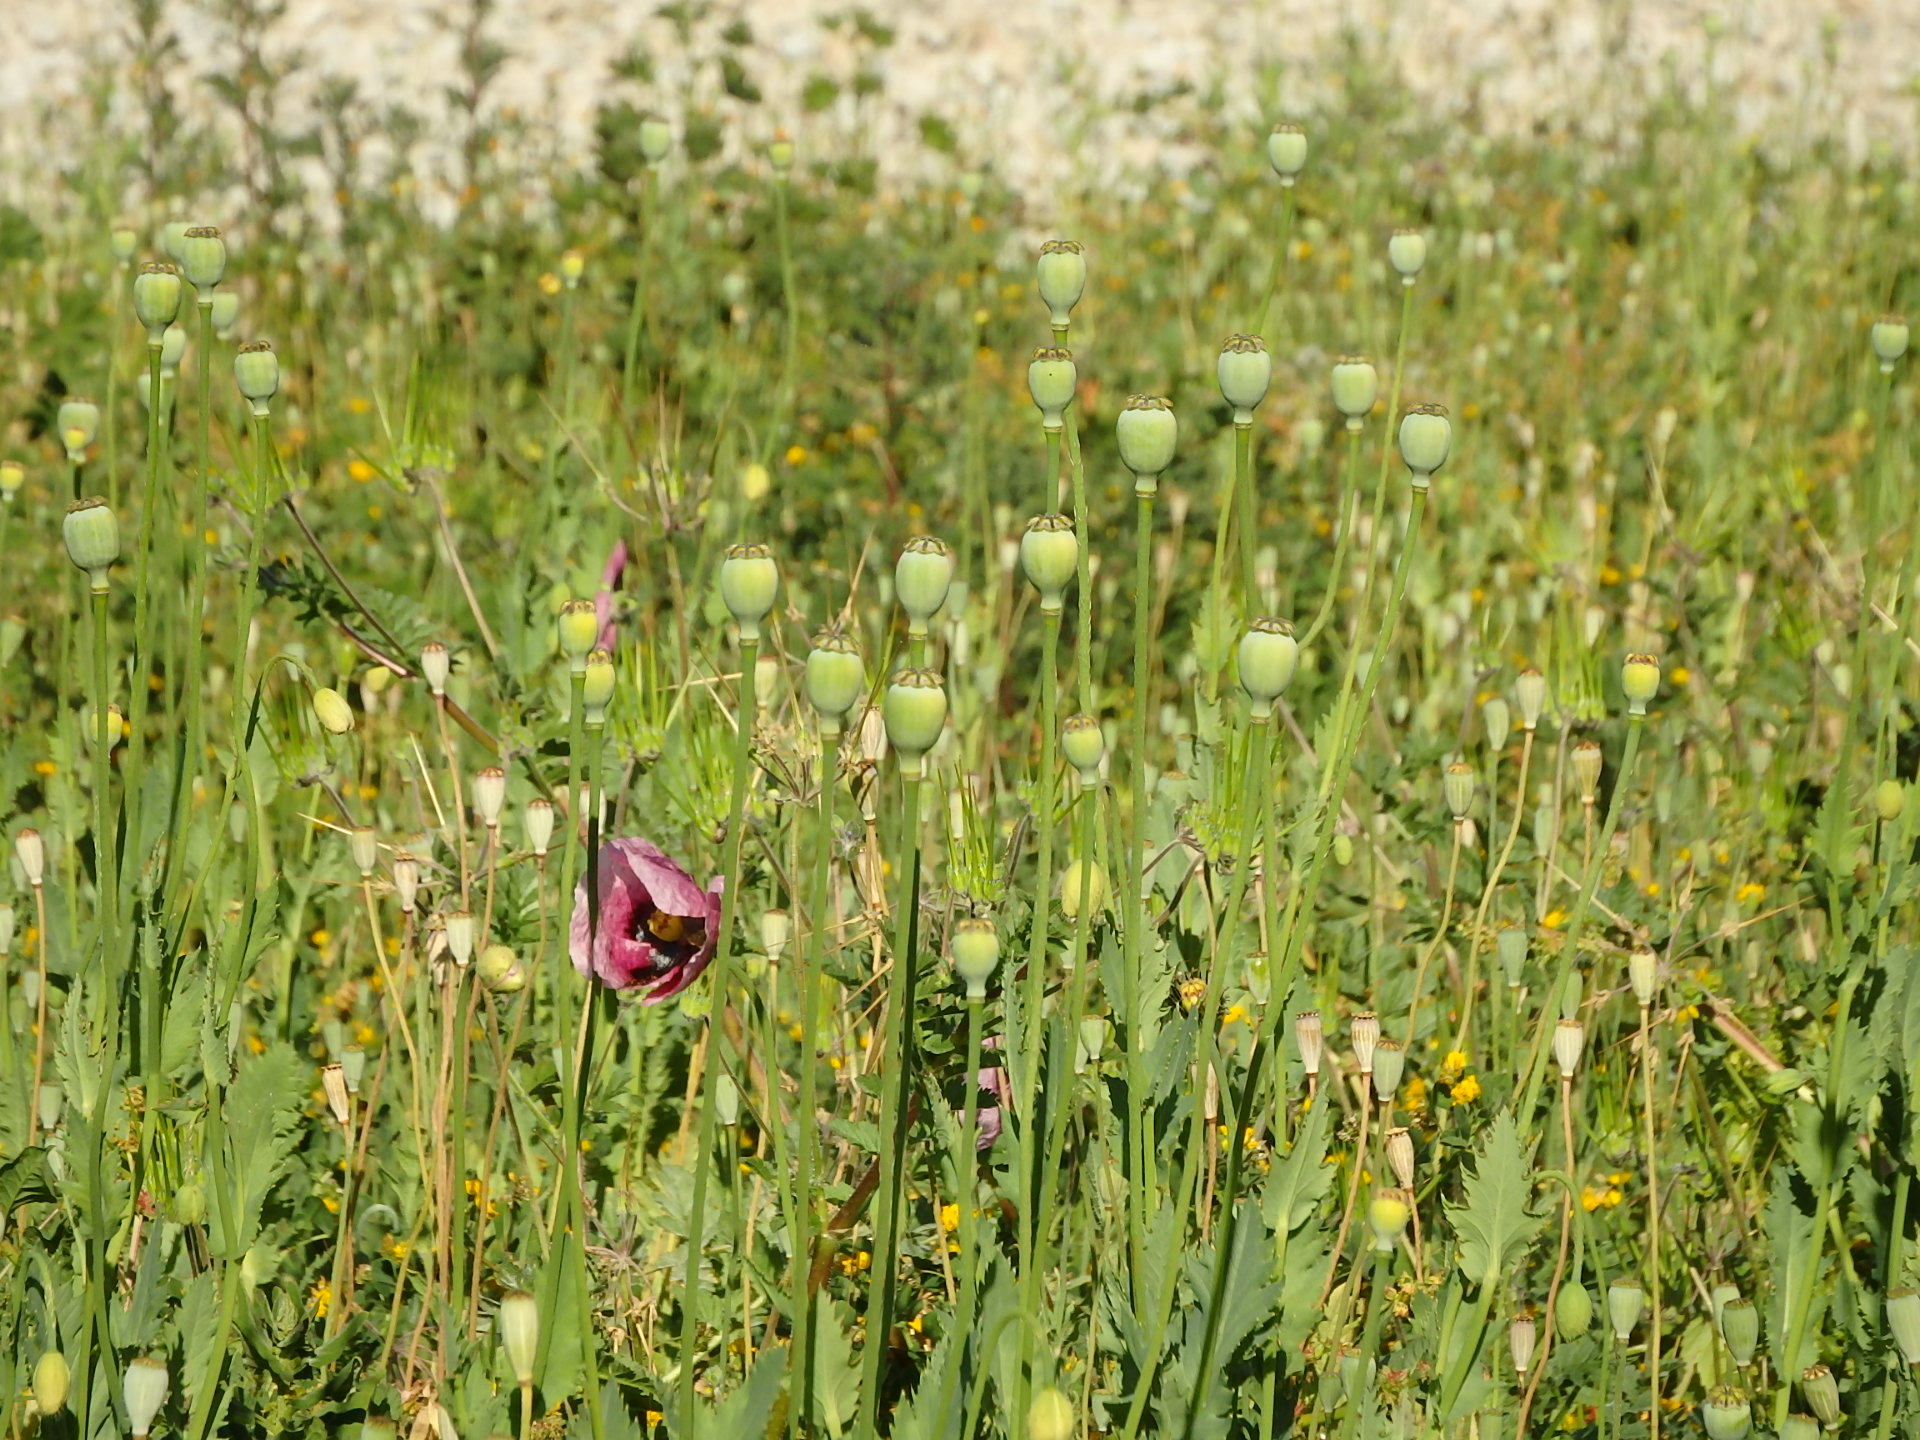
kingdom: Plantae
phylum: Tracheophyta
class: Magnoliopsida
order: Ranunculales
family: Papaveraceae
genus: Papaver
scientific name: Papaver setigerum
